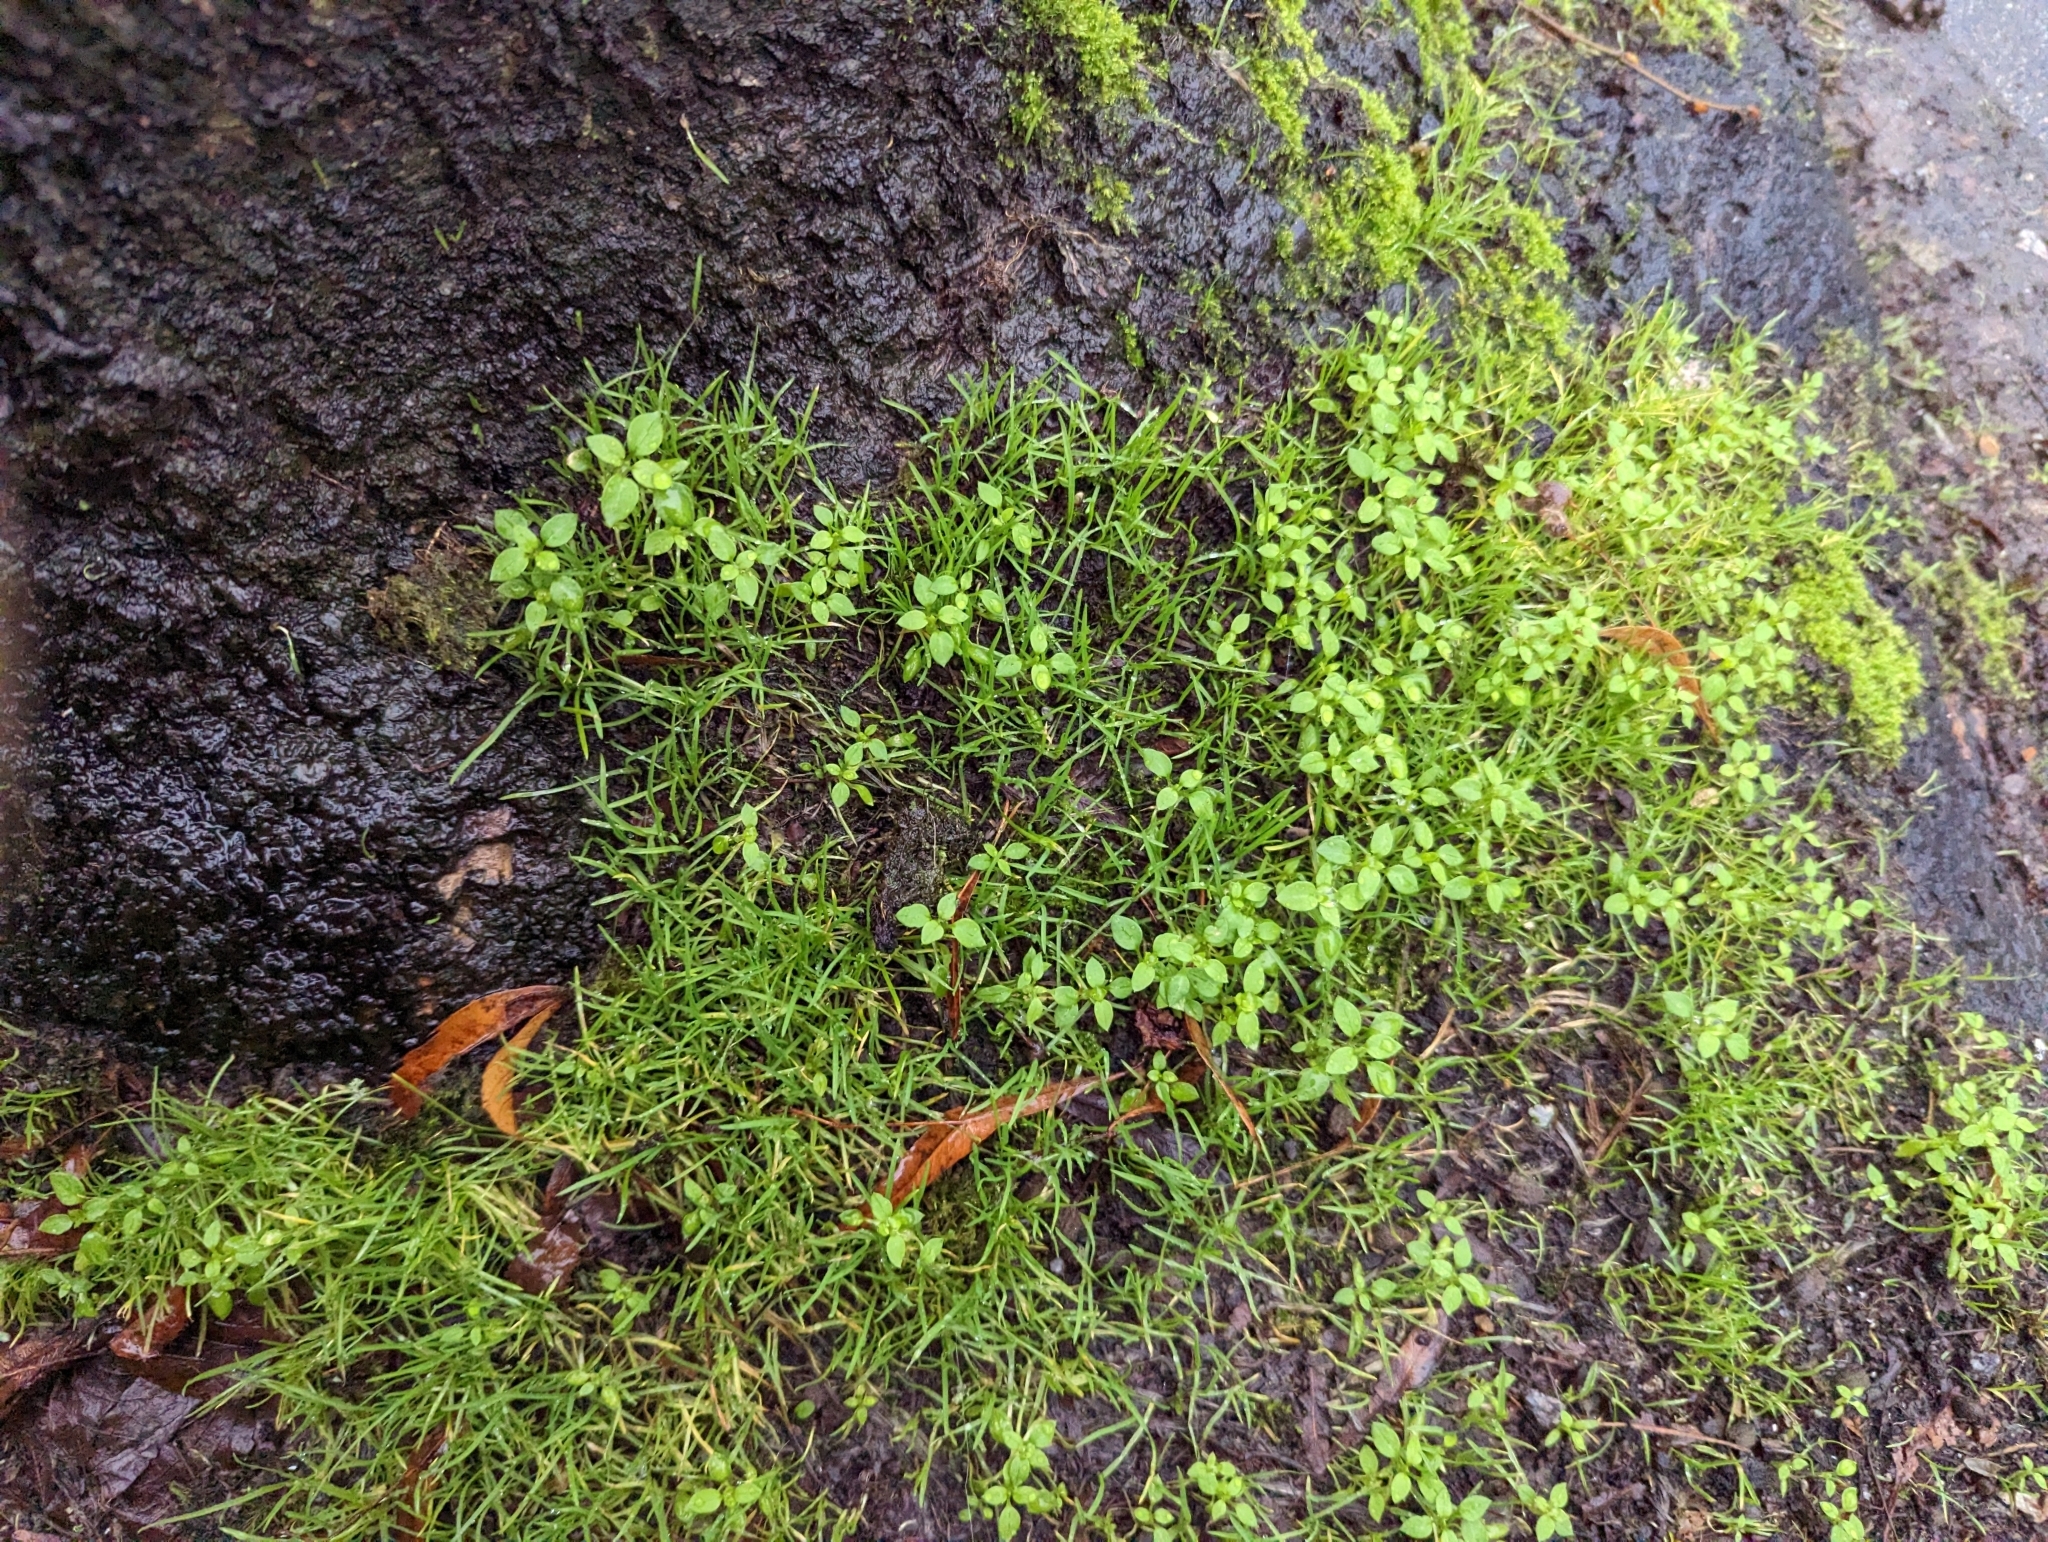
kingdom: Plantae
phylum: Tracheophyta
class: Magnoliopsida
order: Caryophyllales
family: Caryophyllaceae
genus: Stellaria
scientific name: Stellaria media
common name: Common chickweed
